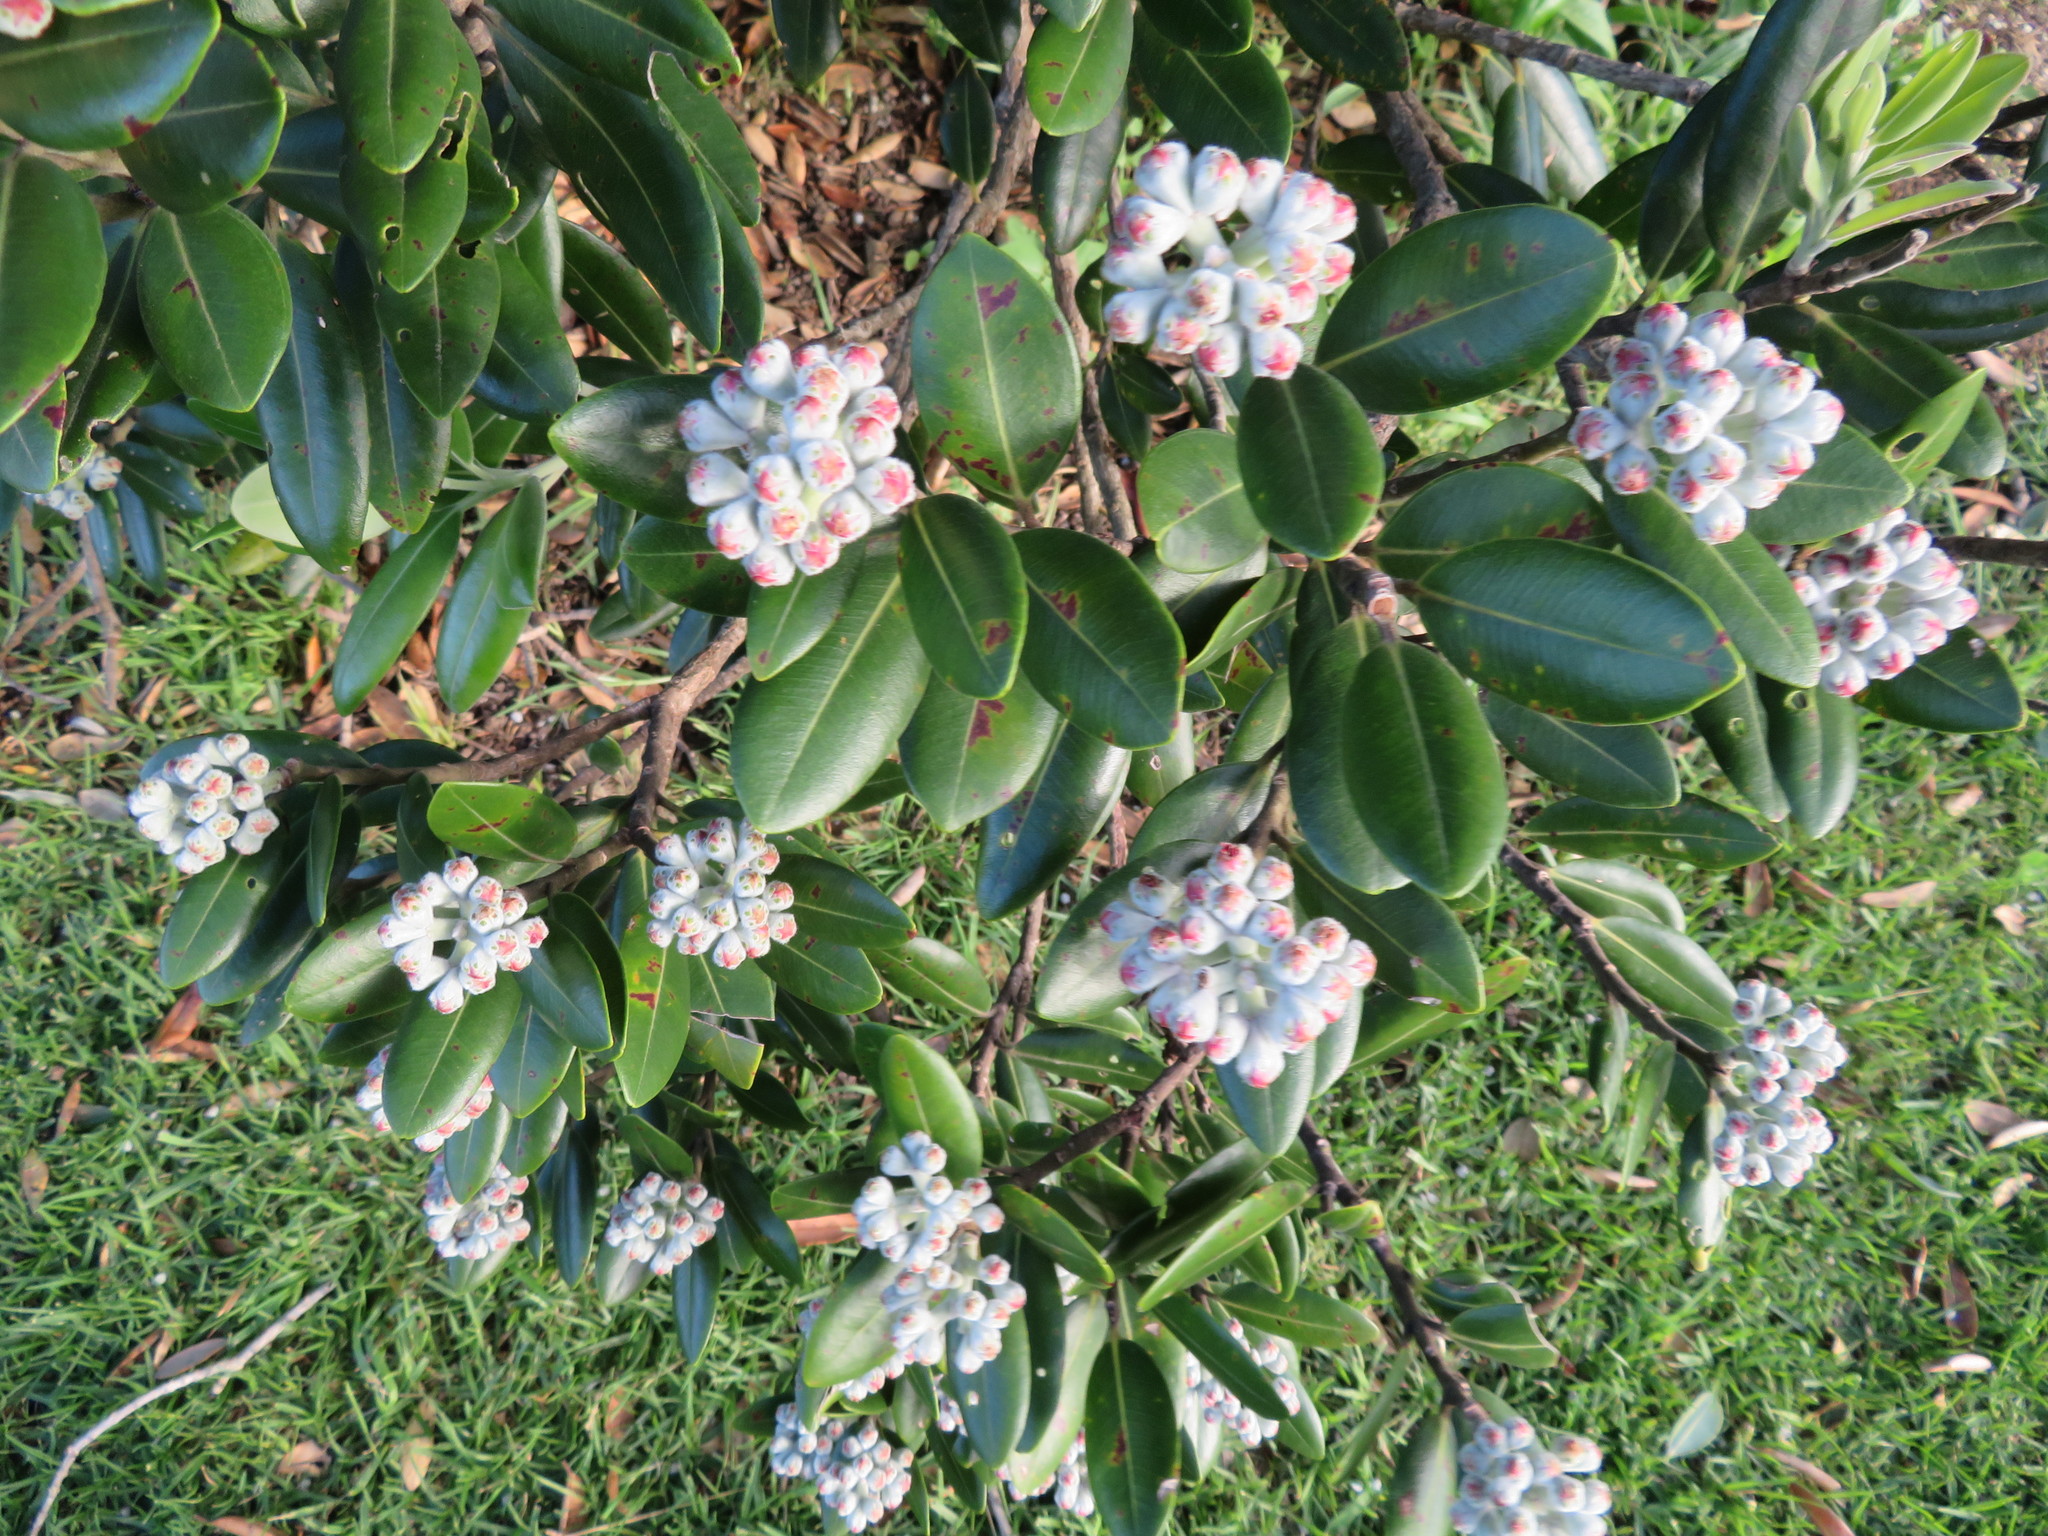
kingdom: Plantae
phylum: Tracheophyta
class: Magnoliopsida
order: Myrtales
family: Myrtaceae
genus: Metrosideros
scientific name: Metrosideros excelsa
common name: New zealand christmastree
